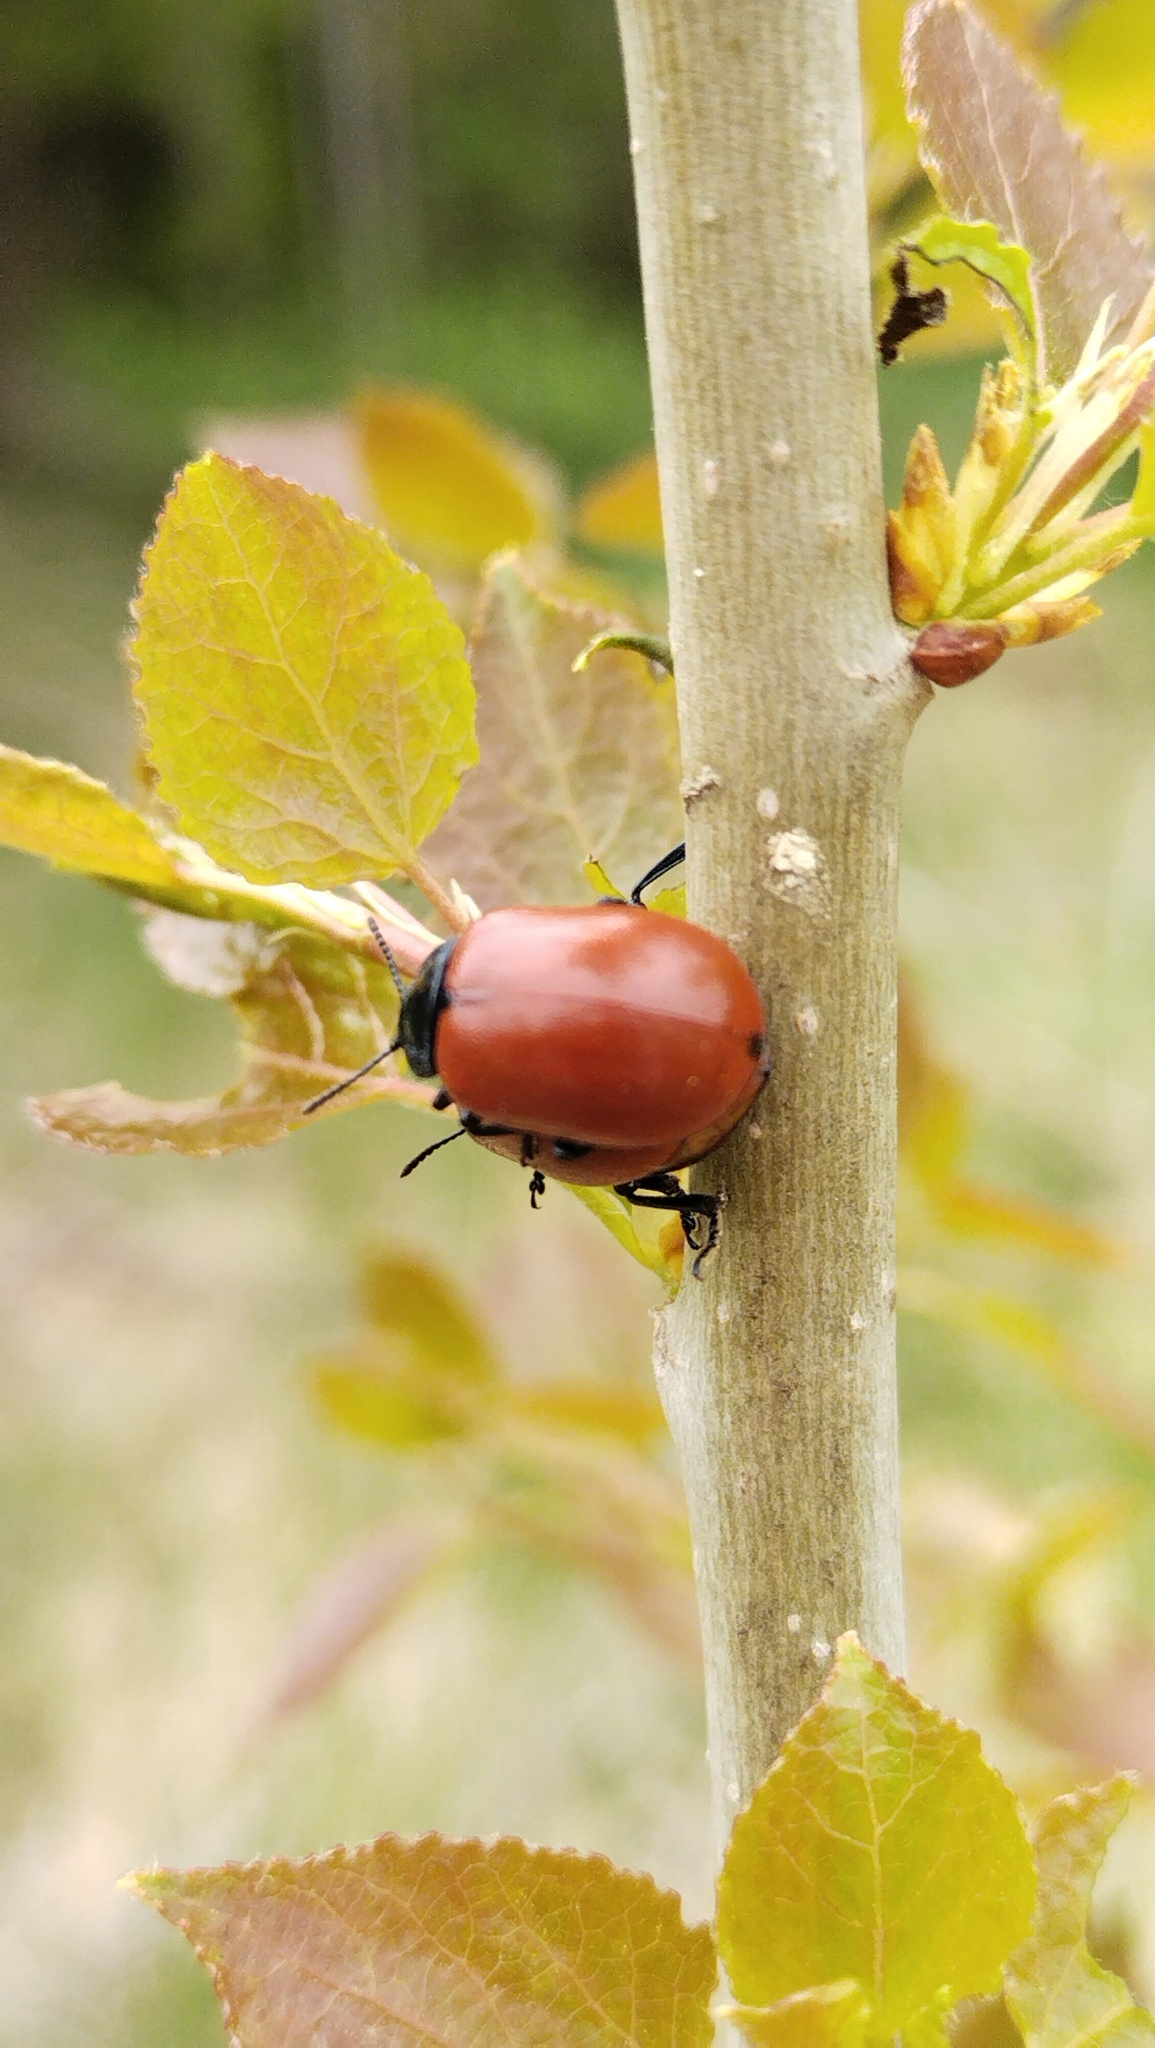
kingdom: Animalia
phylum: Arthropoda
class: Insecta
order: Coleoptera
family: Chrysomelidae
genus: Chrysomela
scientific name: Chrysomela populi
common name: Red poplar leaf beetle
